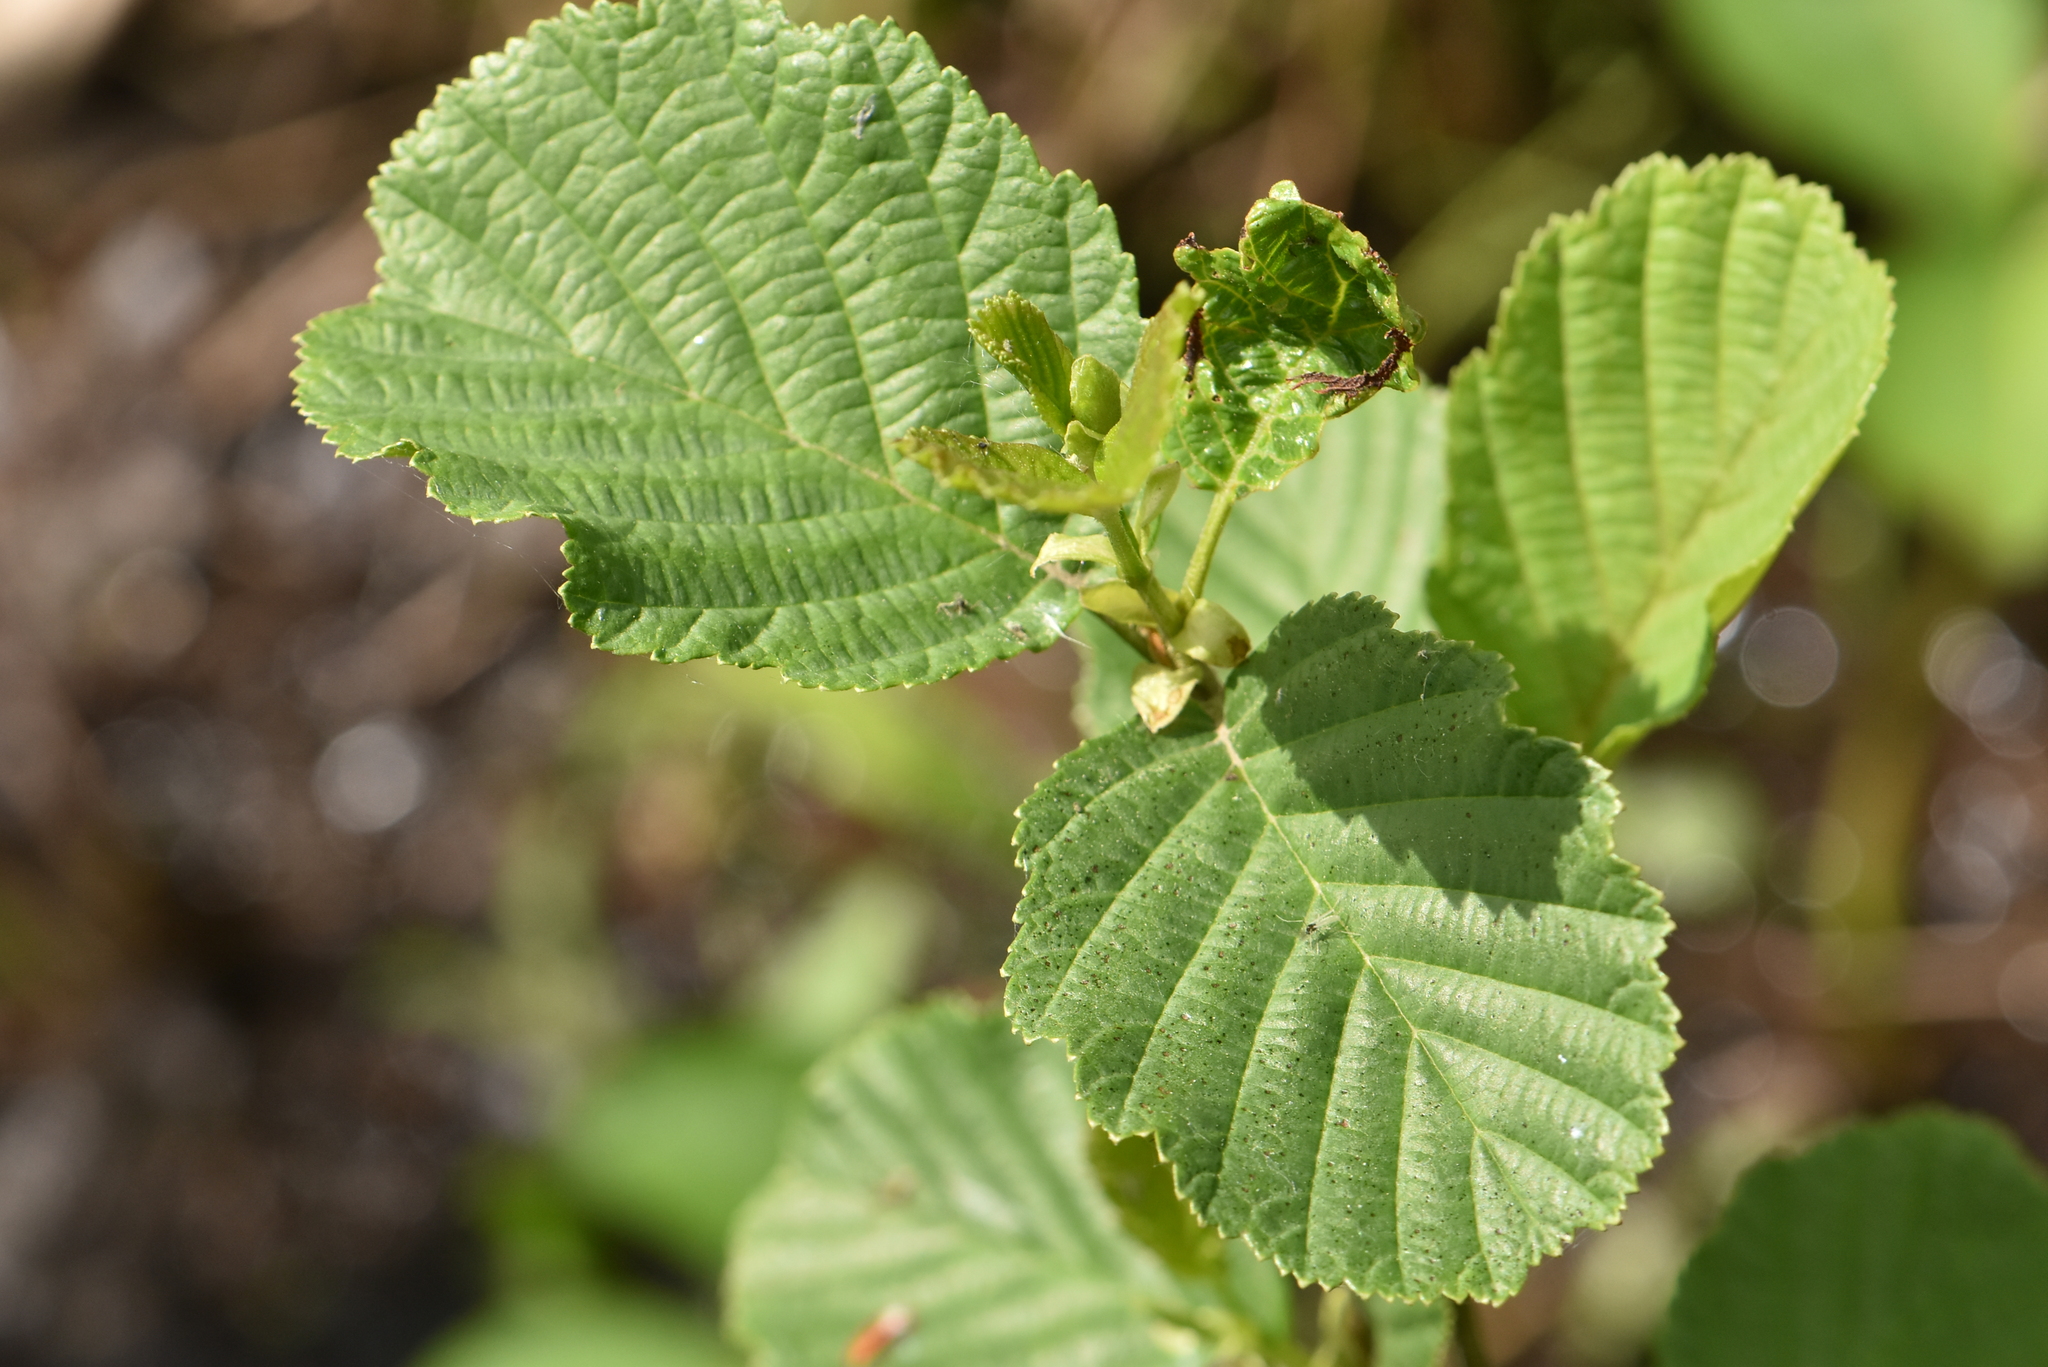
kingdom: Plantae
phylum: Tracheophyta
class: Magnoliopsida
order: Fagales
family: Betulaceae
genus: Alnus
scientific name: Alnus glutinosa
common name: Black alder
